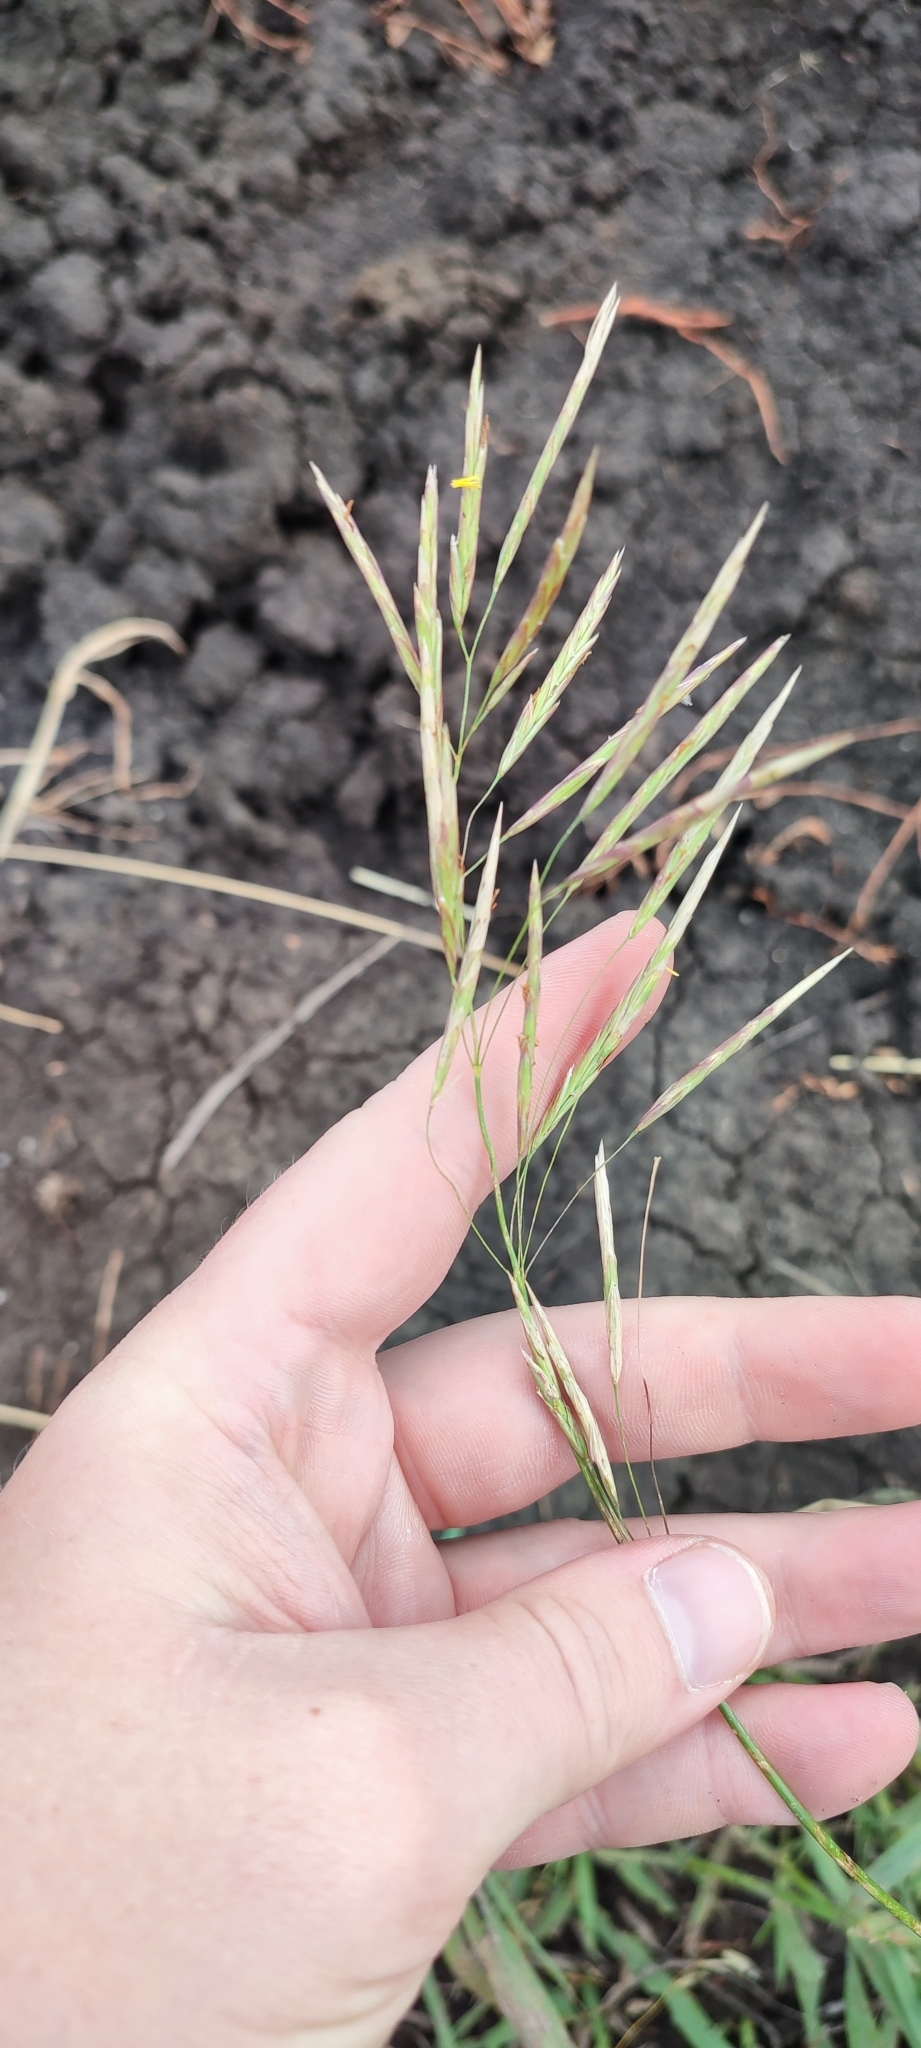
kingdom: Plantae
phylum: Tracheophyta
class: Liliopsida
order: Poales
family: Poaceae
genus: Bromus
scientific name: Bromus inermis
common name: Smooth brome
